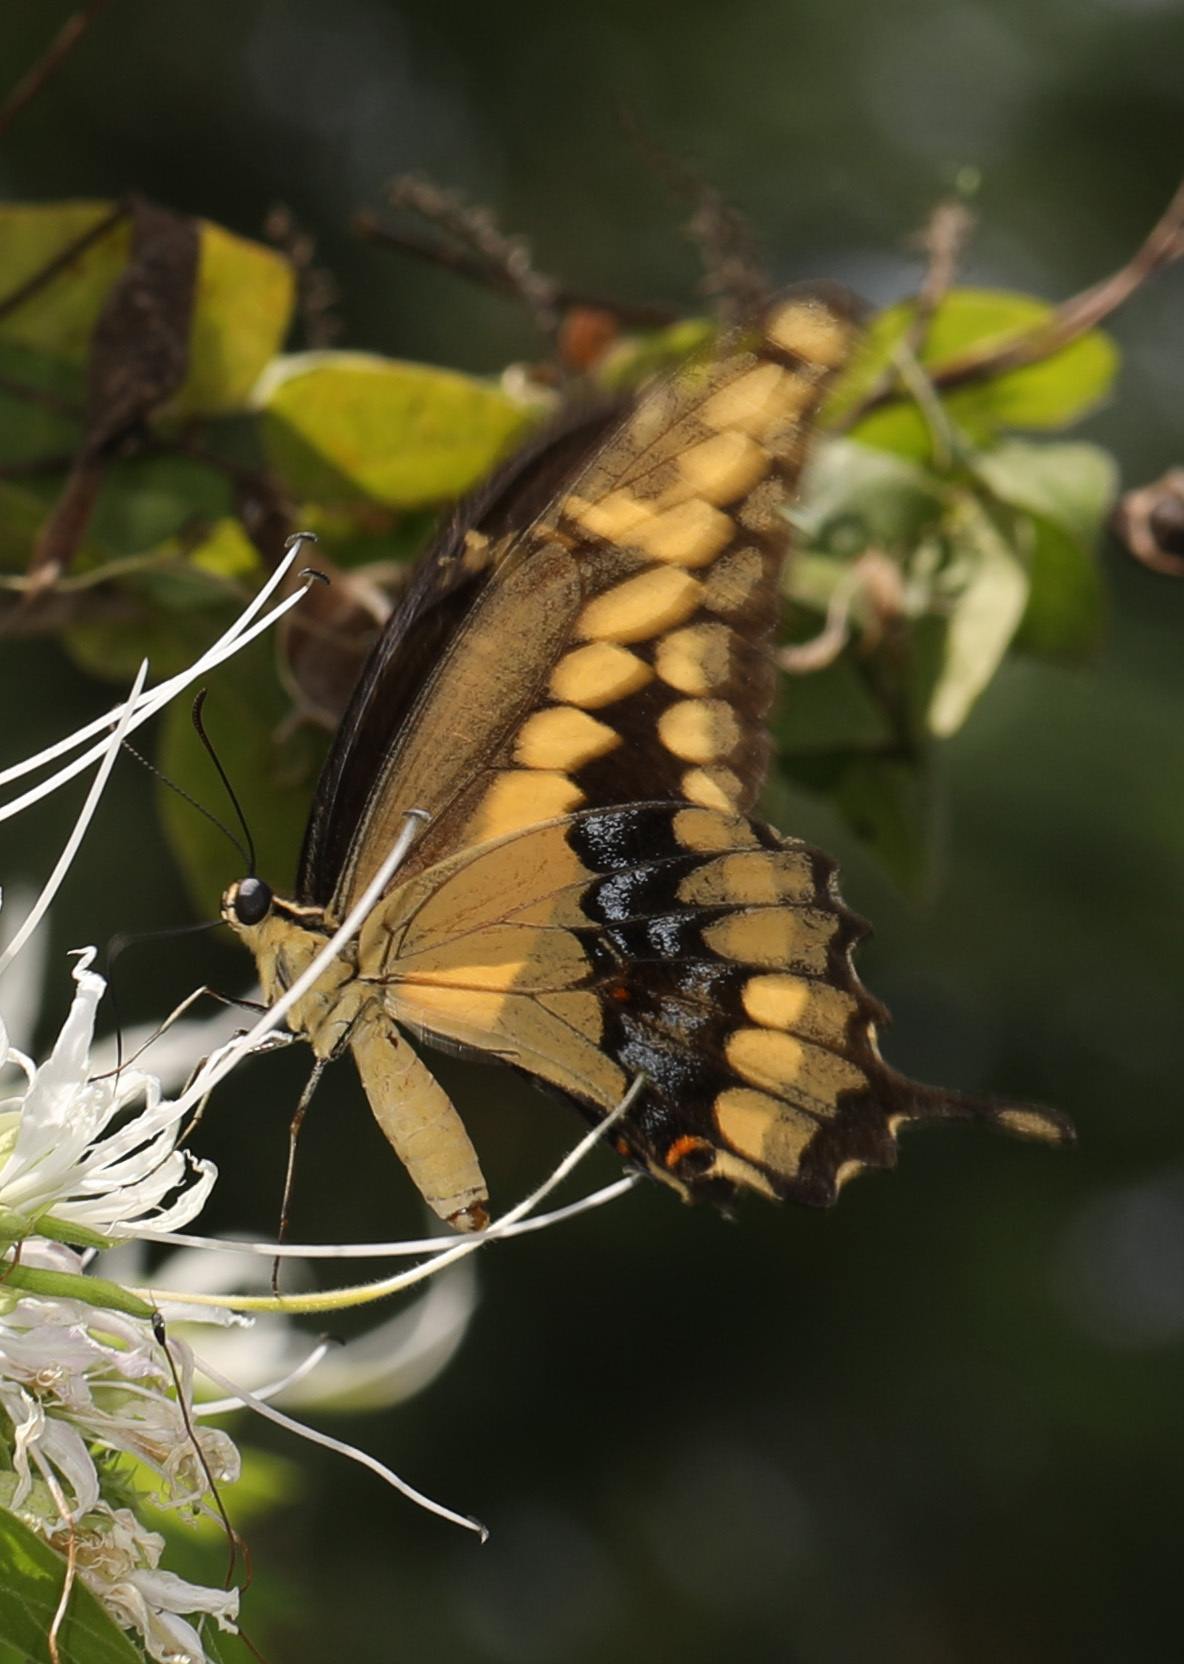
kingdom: Animalia
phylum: Arthropoda
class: Insecta
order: Lepidoptera
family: Papilionidae
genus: Papilio
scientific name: Papilio rumiko
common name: Western giant swallowtail
